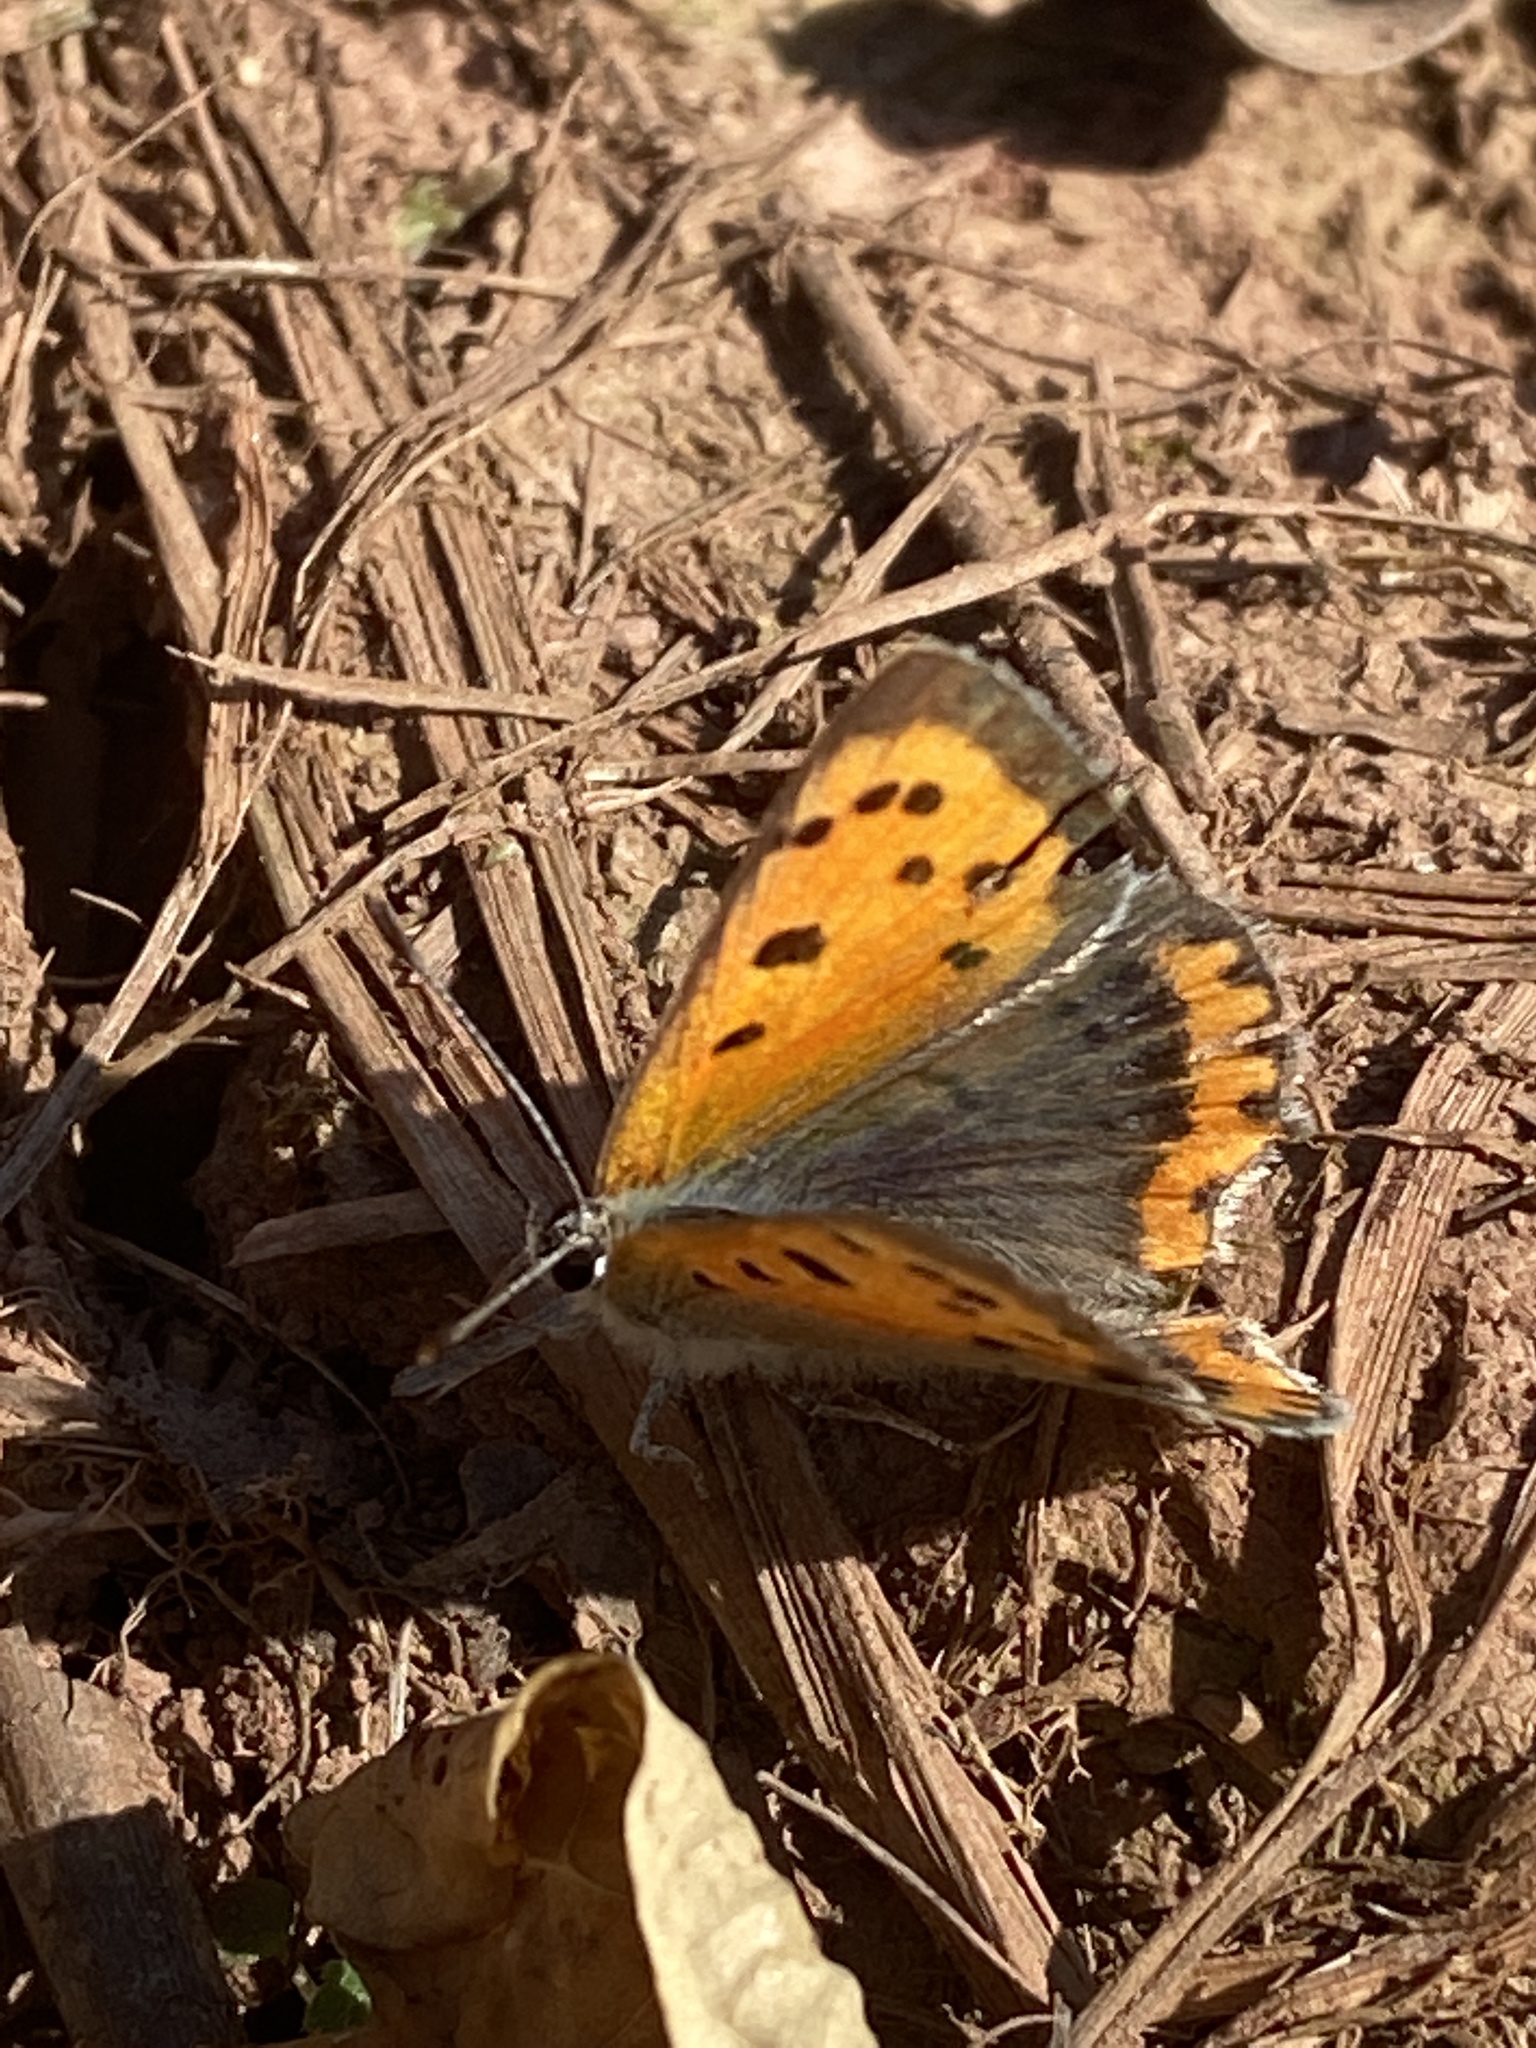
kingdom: Animalia
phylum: Arthropoda
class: Insecta
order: Lepidoptera
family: Lycaenidae
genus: Lycaena
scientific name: Lycaena phlaeas
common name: Small copper
